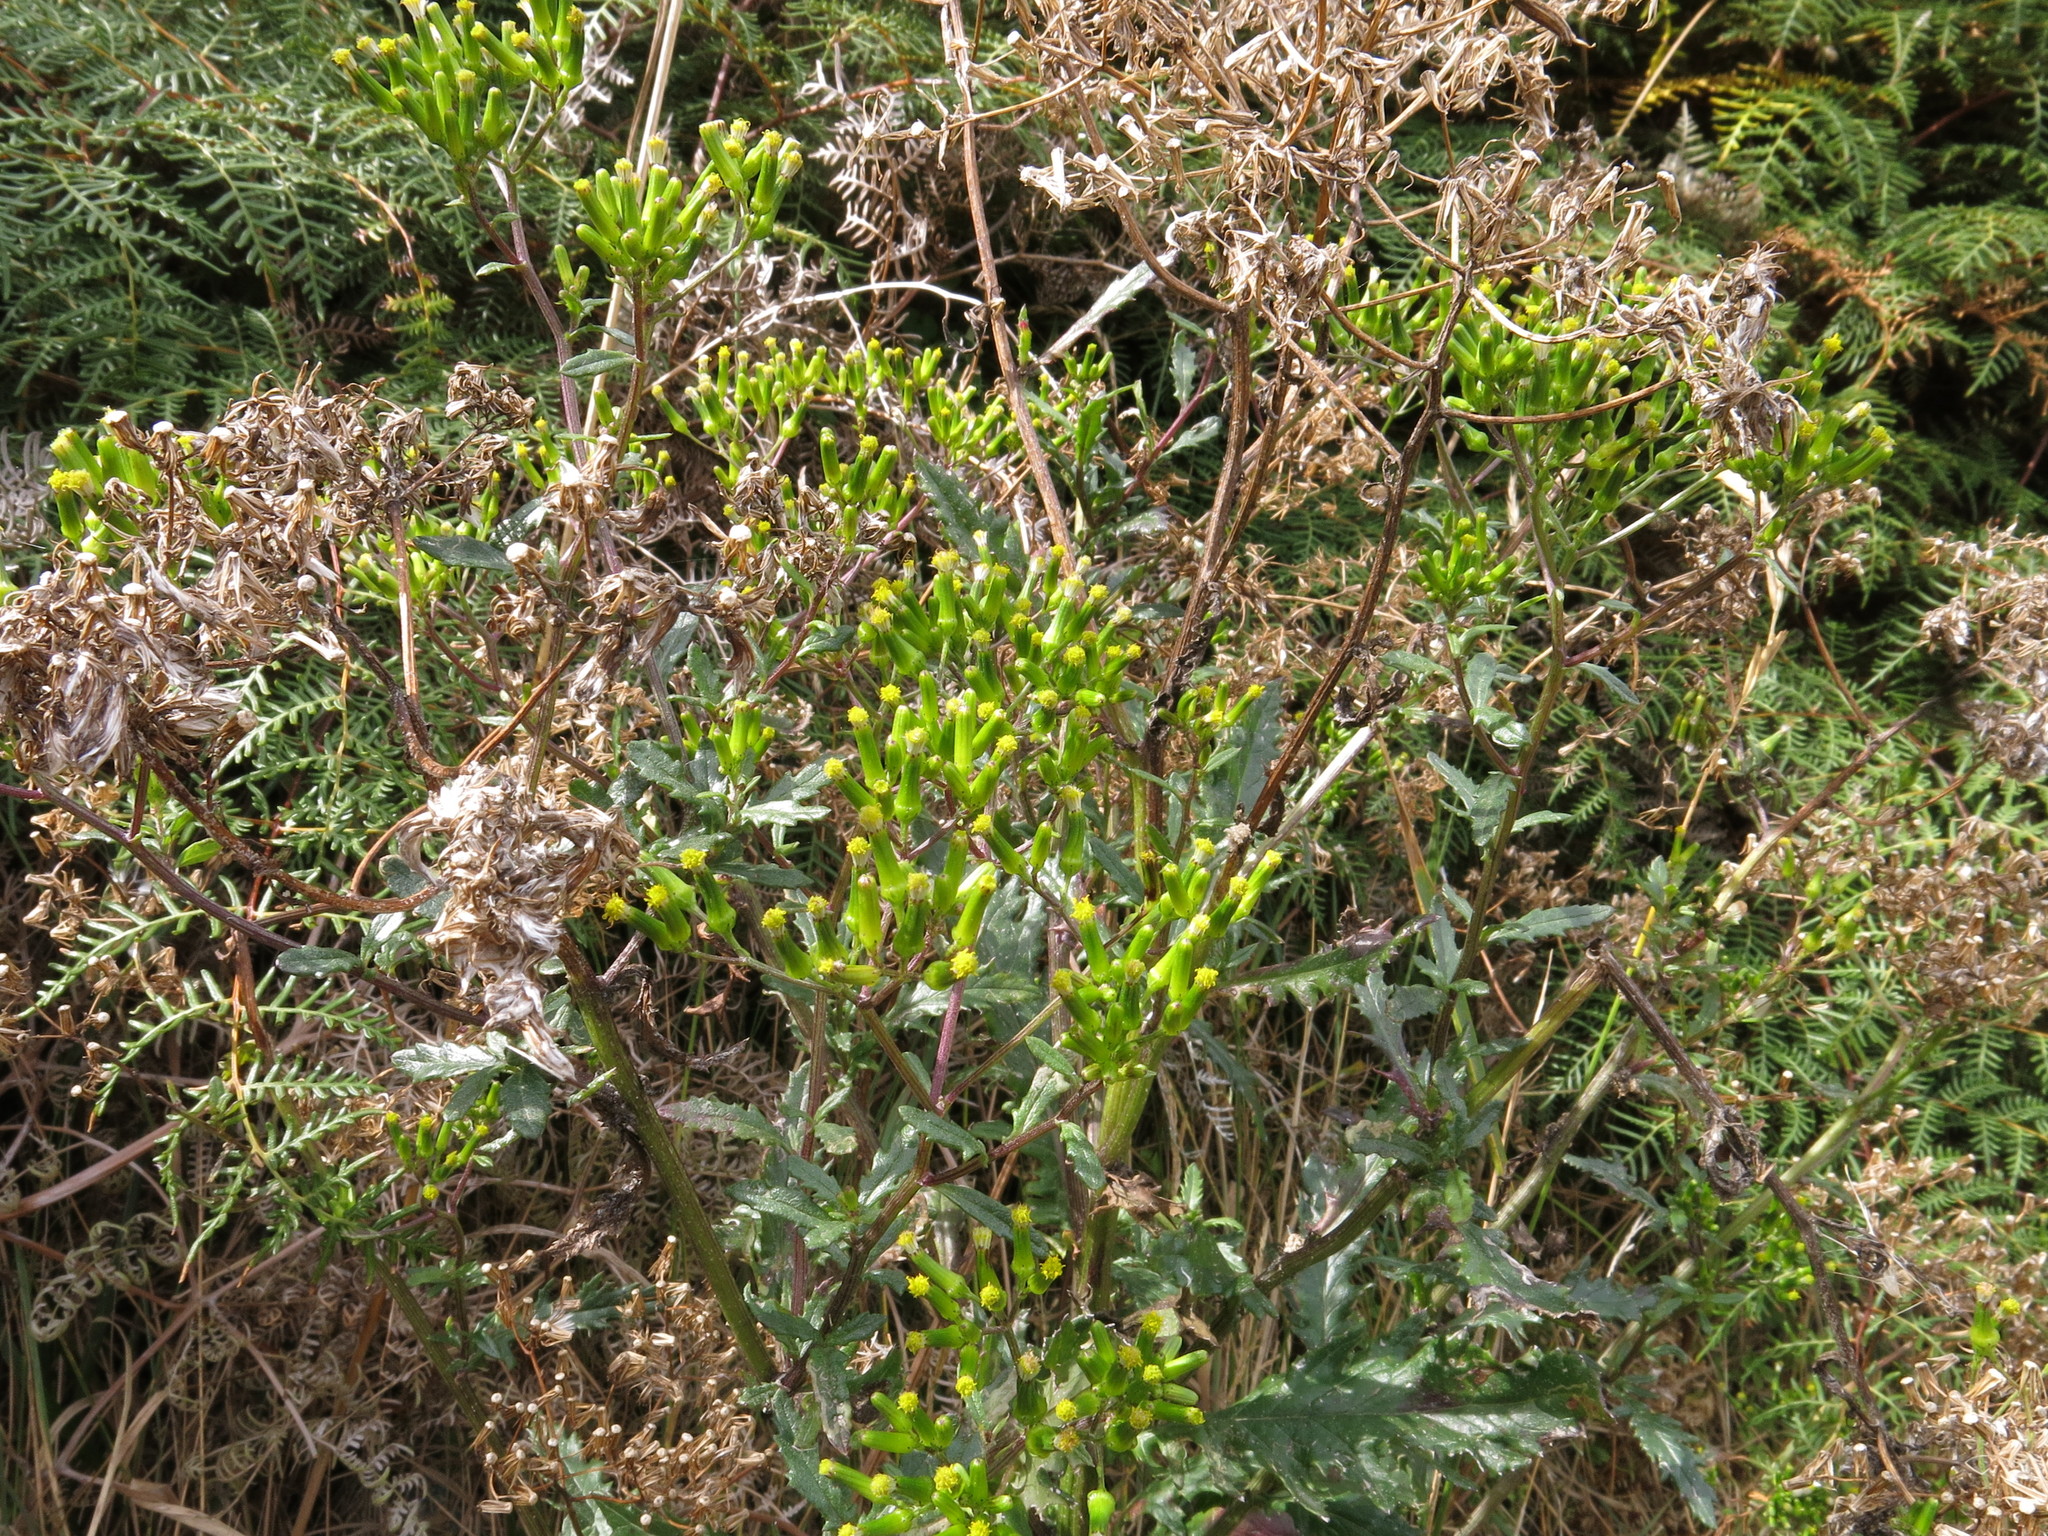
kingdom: Plantae
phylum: Tracheophyta
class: Magnoliopsida
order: Asterales
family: Asteraceae
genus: Senecio
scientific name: Senecio biserratus
